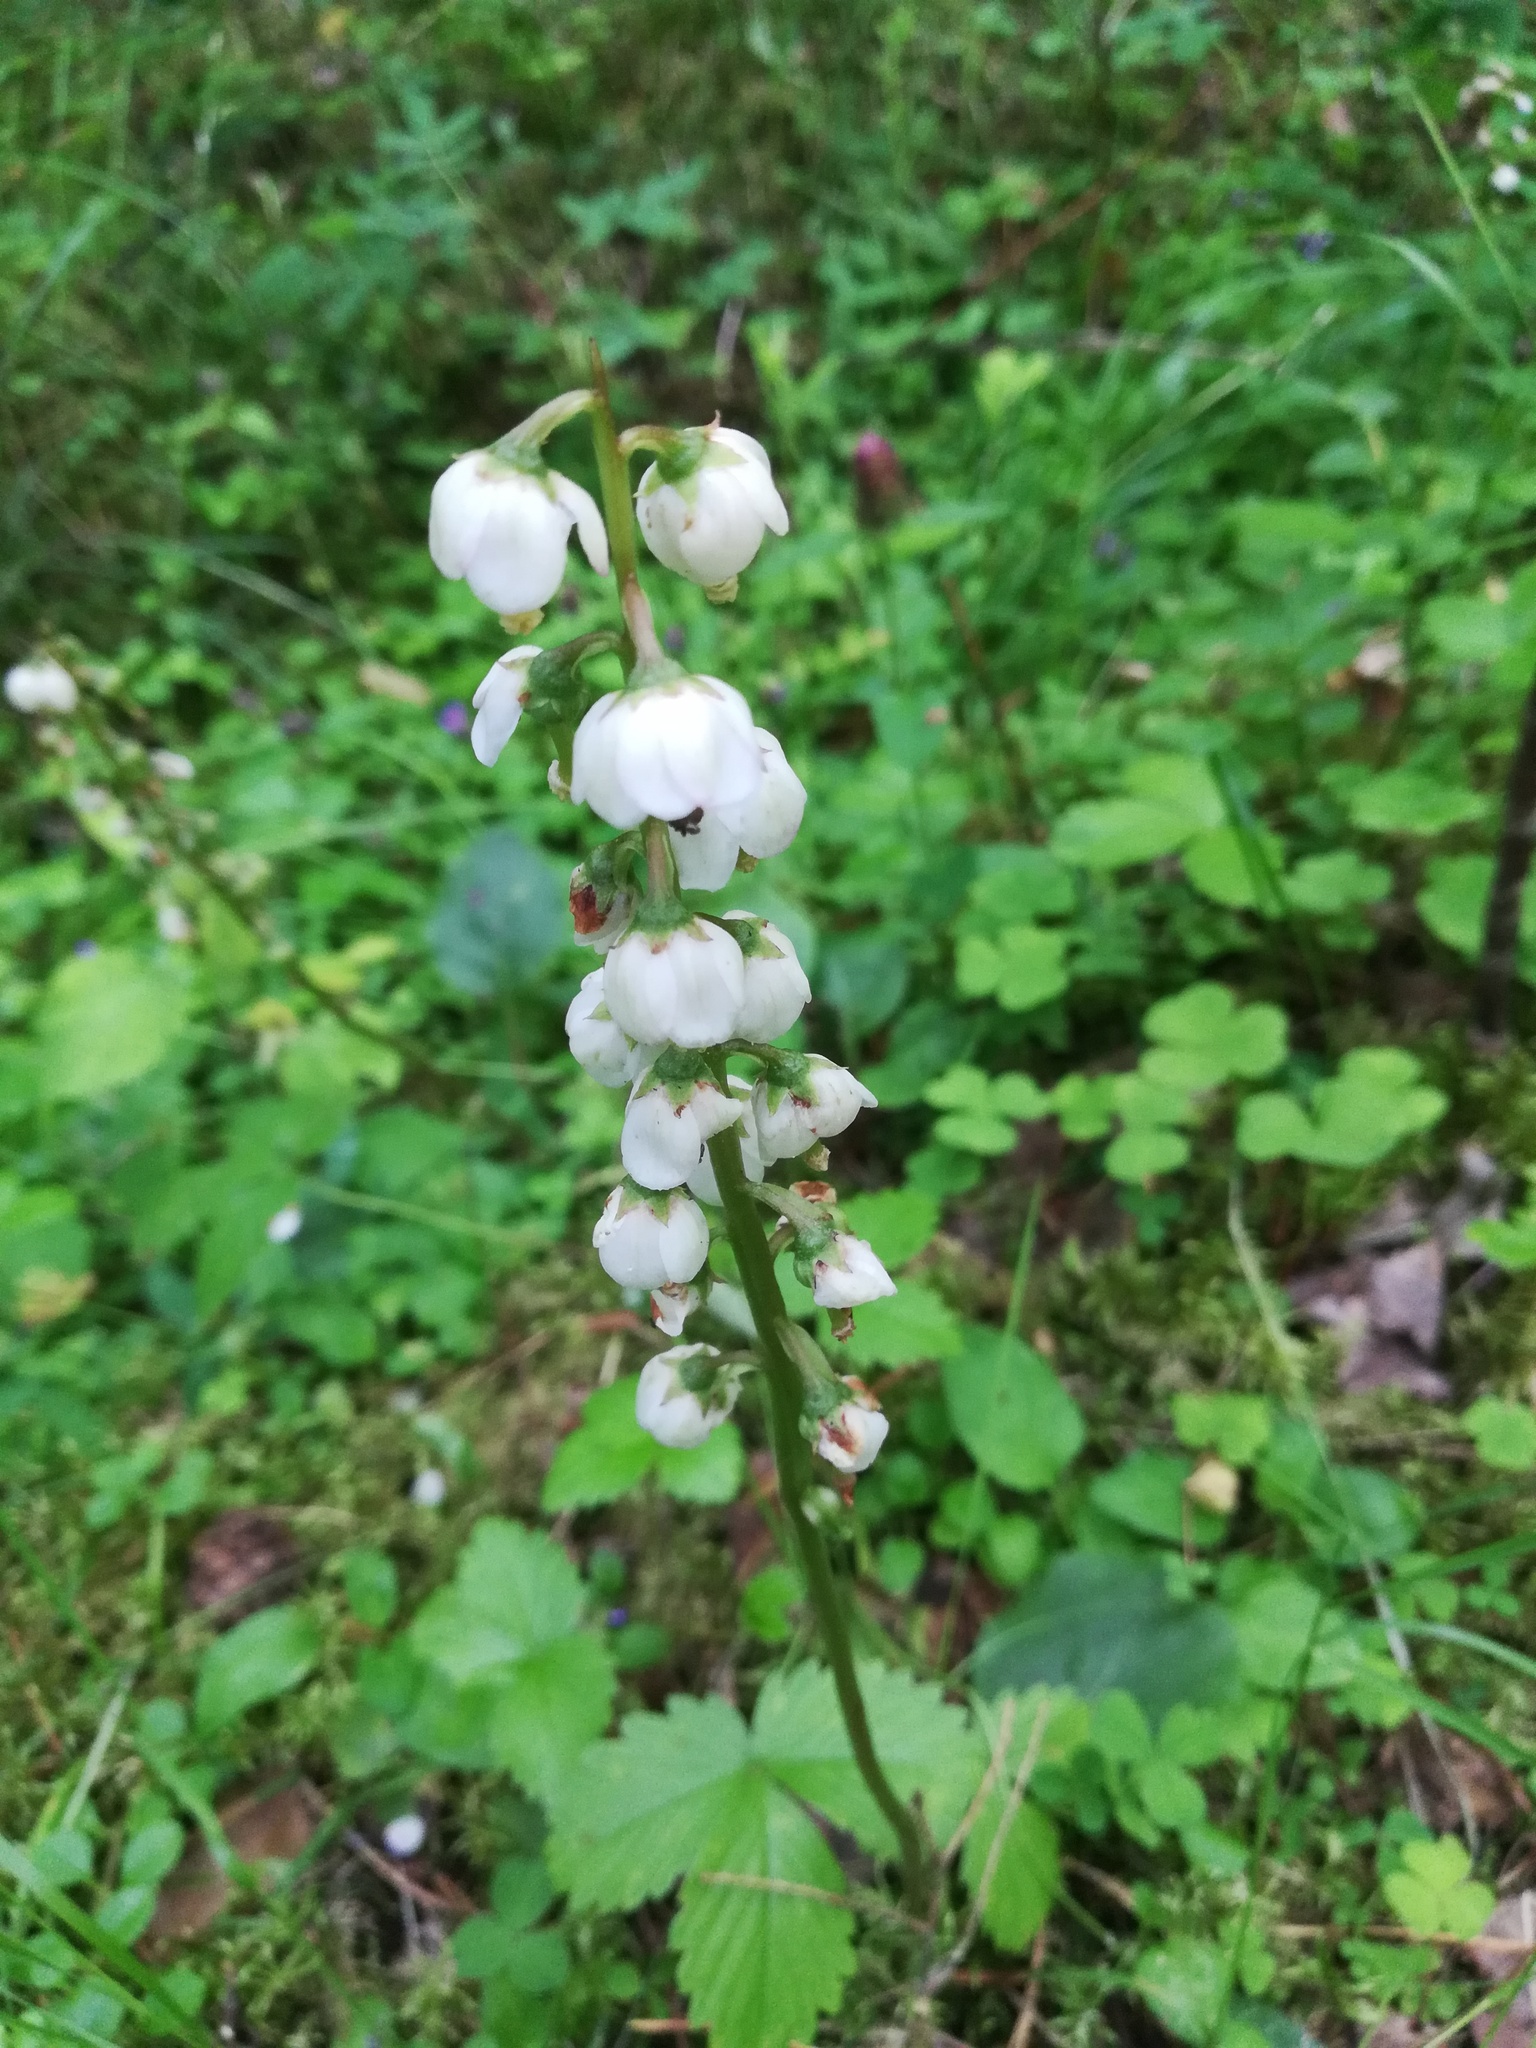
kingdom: Plantae
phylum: Tracheophyta
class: Magnoliopsida
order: Ericales
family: Ericaceae
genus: Pyrola
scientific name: Pyrola media
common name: Intermediate wintergreen
